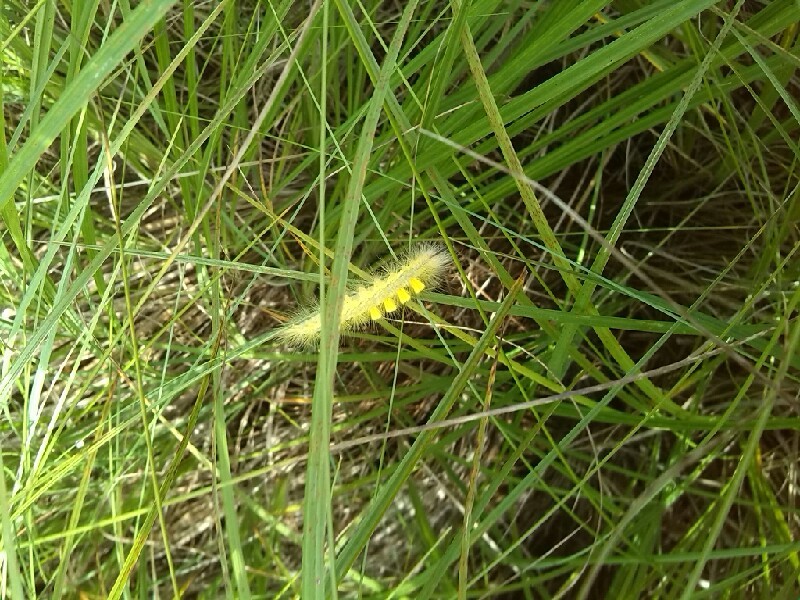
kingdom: Animalia
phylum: Arthropoda
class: Insecta
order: Lepidoptera
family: Erebidae
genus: Orgyia
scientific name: Orgyia antiqua
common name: Vapourer
